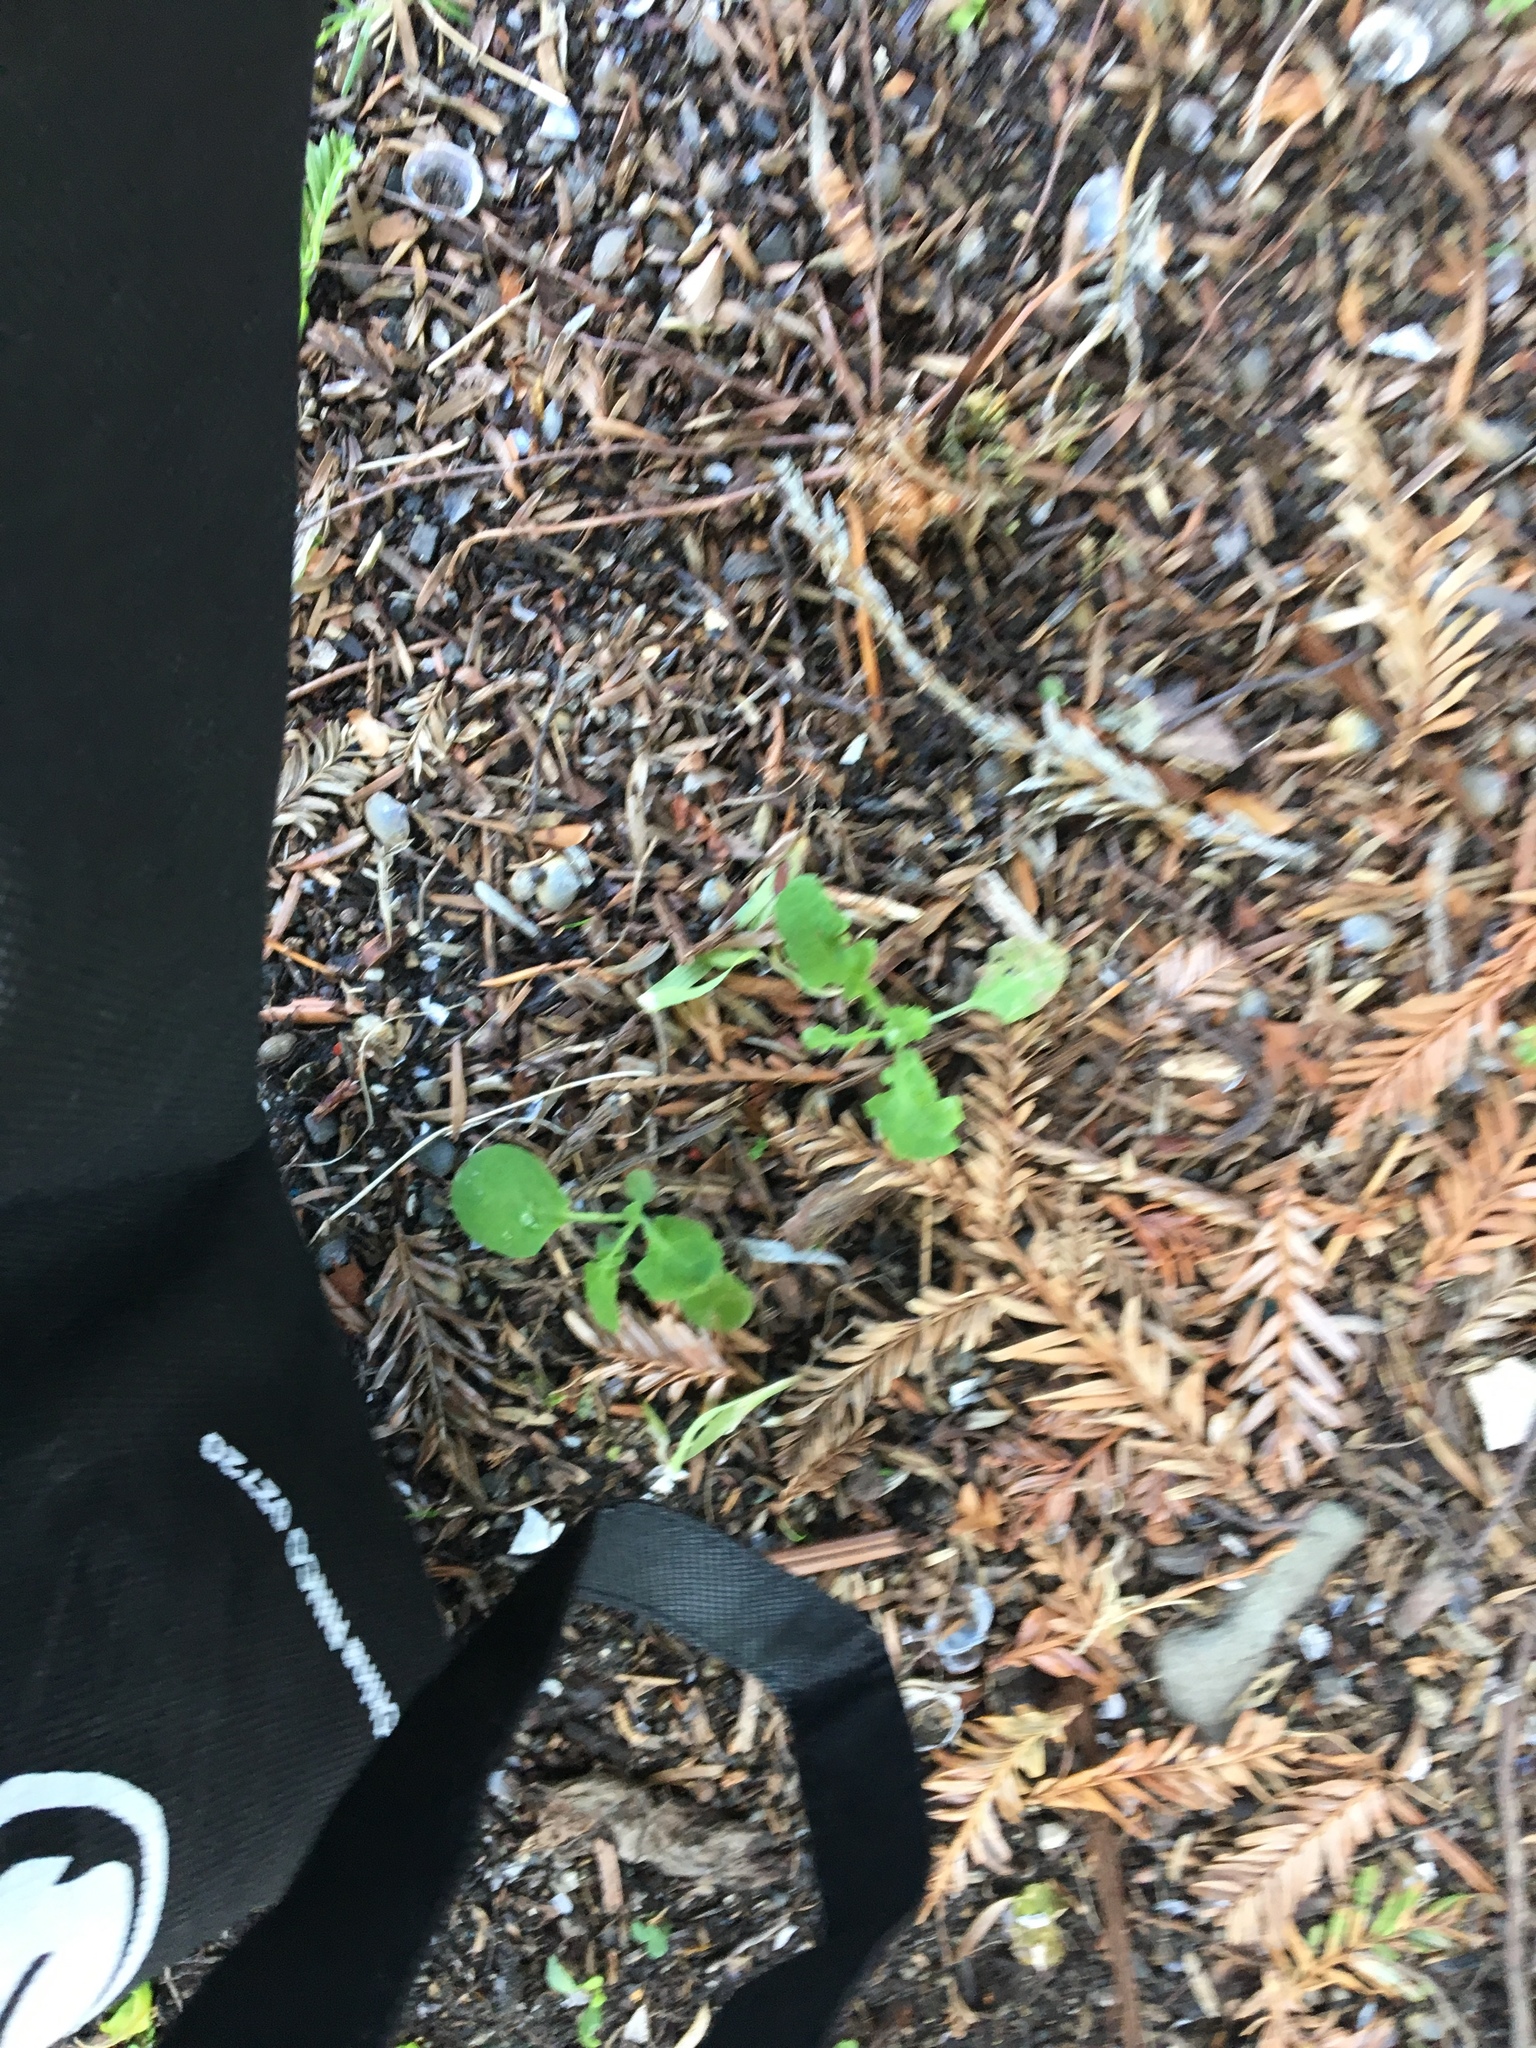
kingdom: Animalia
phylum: Mollusca
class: Bivalvia
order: Venerida
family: Cyrenidae
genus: Corbicula
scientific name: Corbicula fluminea
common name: Asian clam
